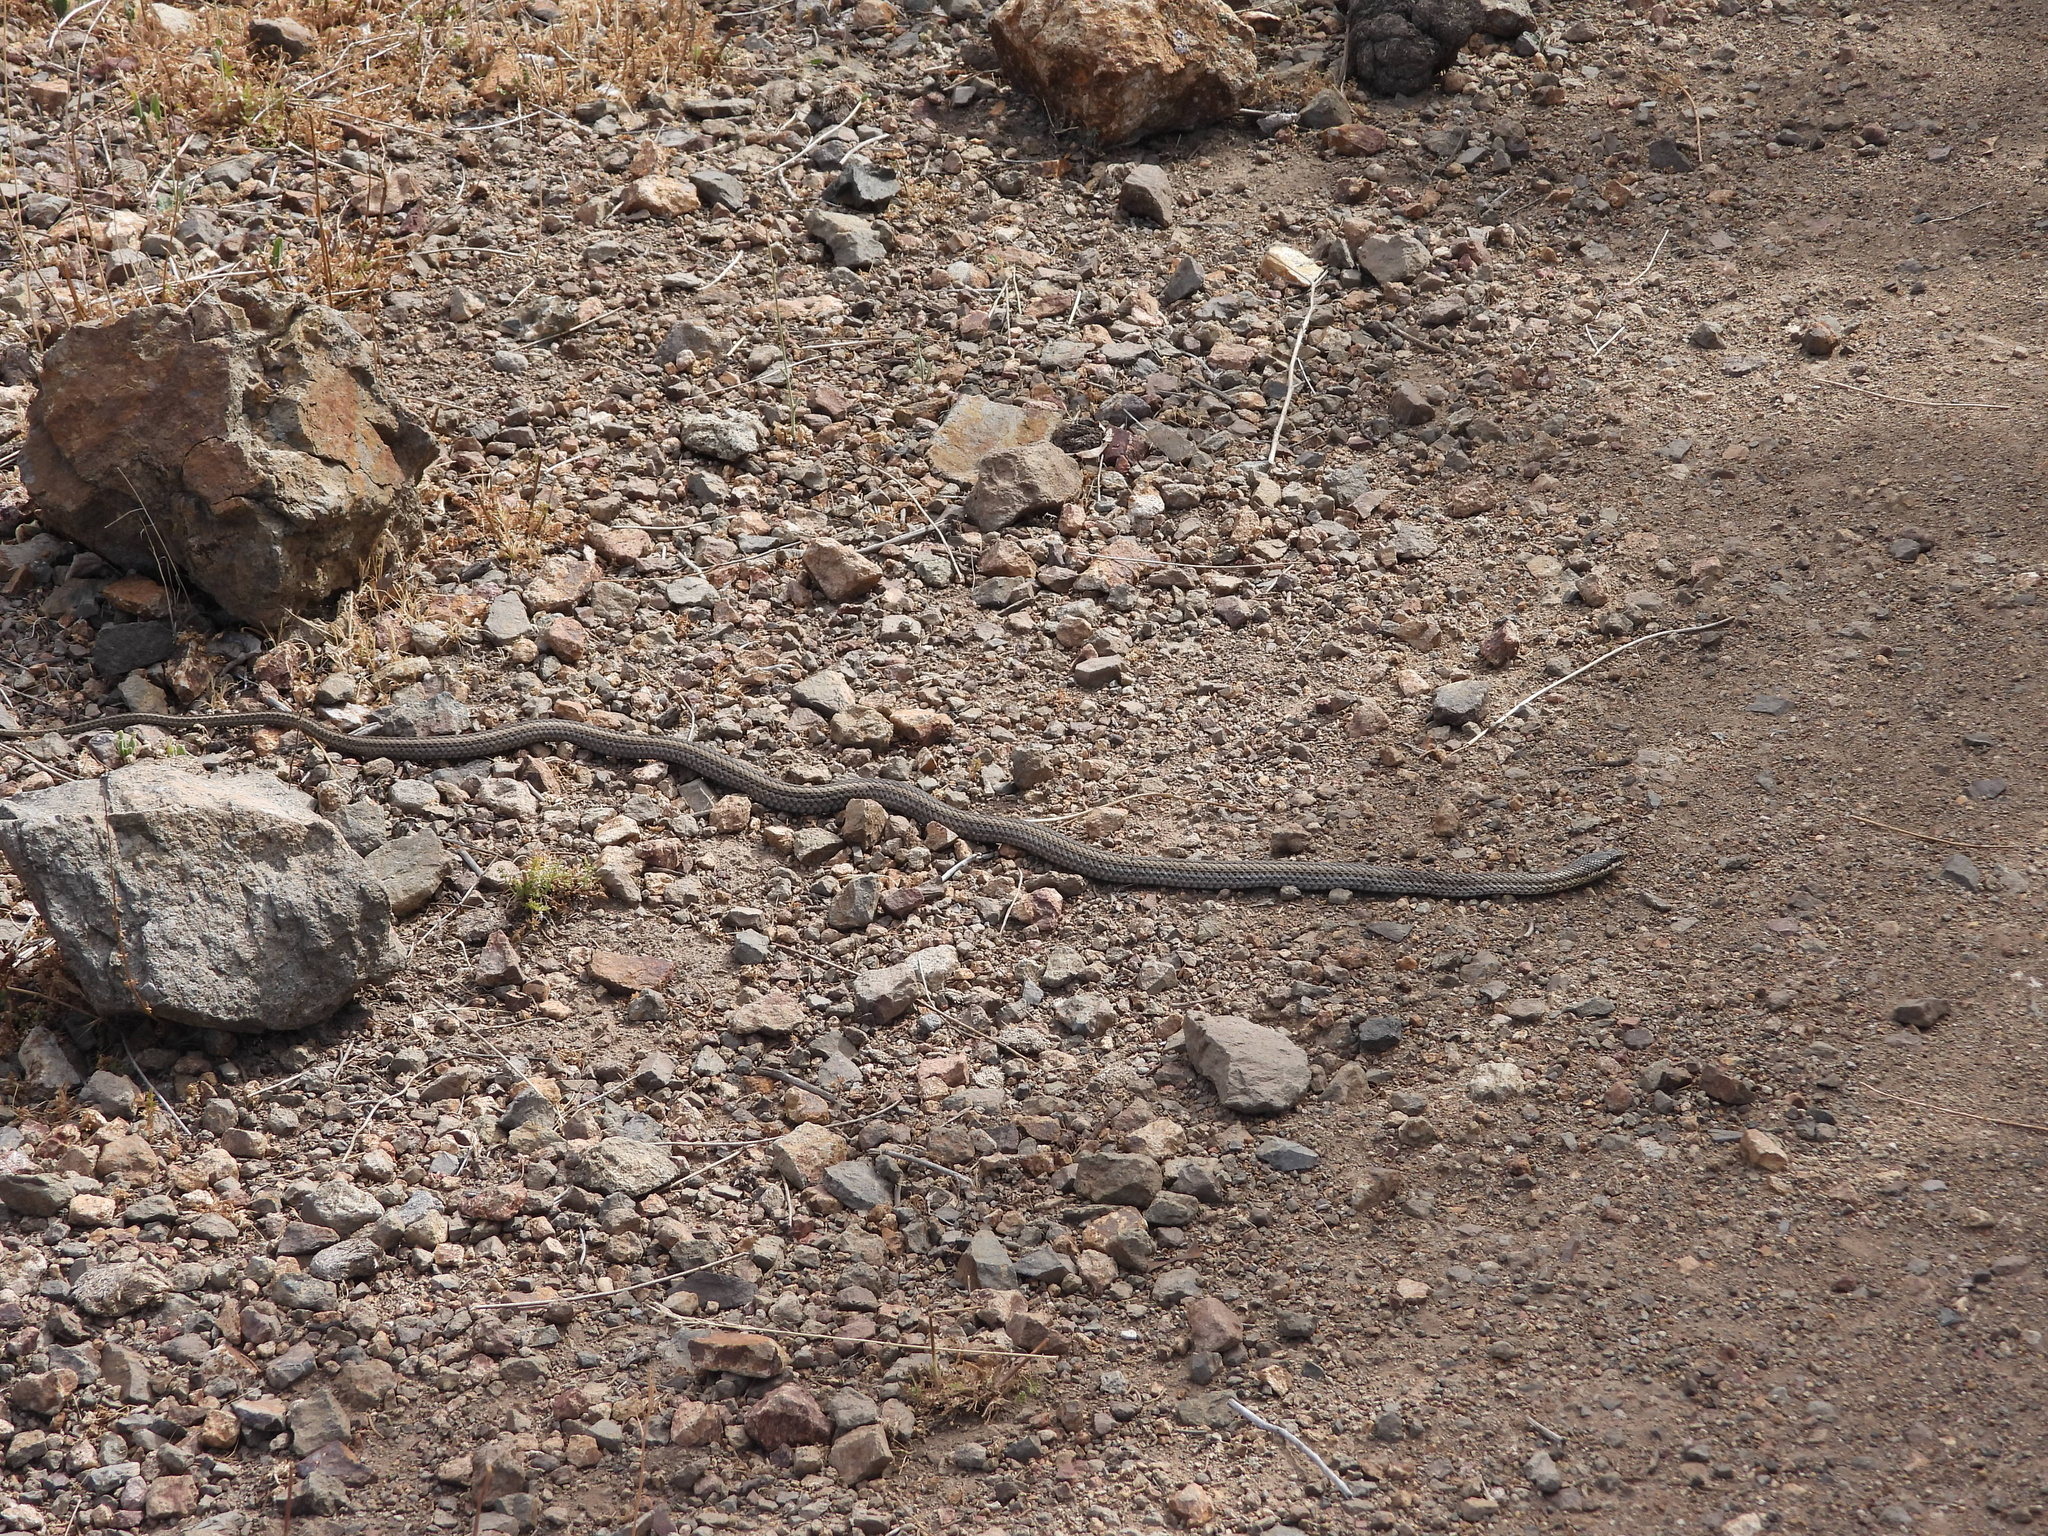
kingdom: Animalia
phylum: Chordata
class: Squamata
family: Colubridae
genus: Philodryas
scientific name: Philodryas chamissonis
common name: Chilean green racer
